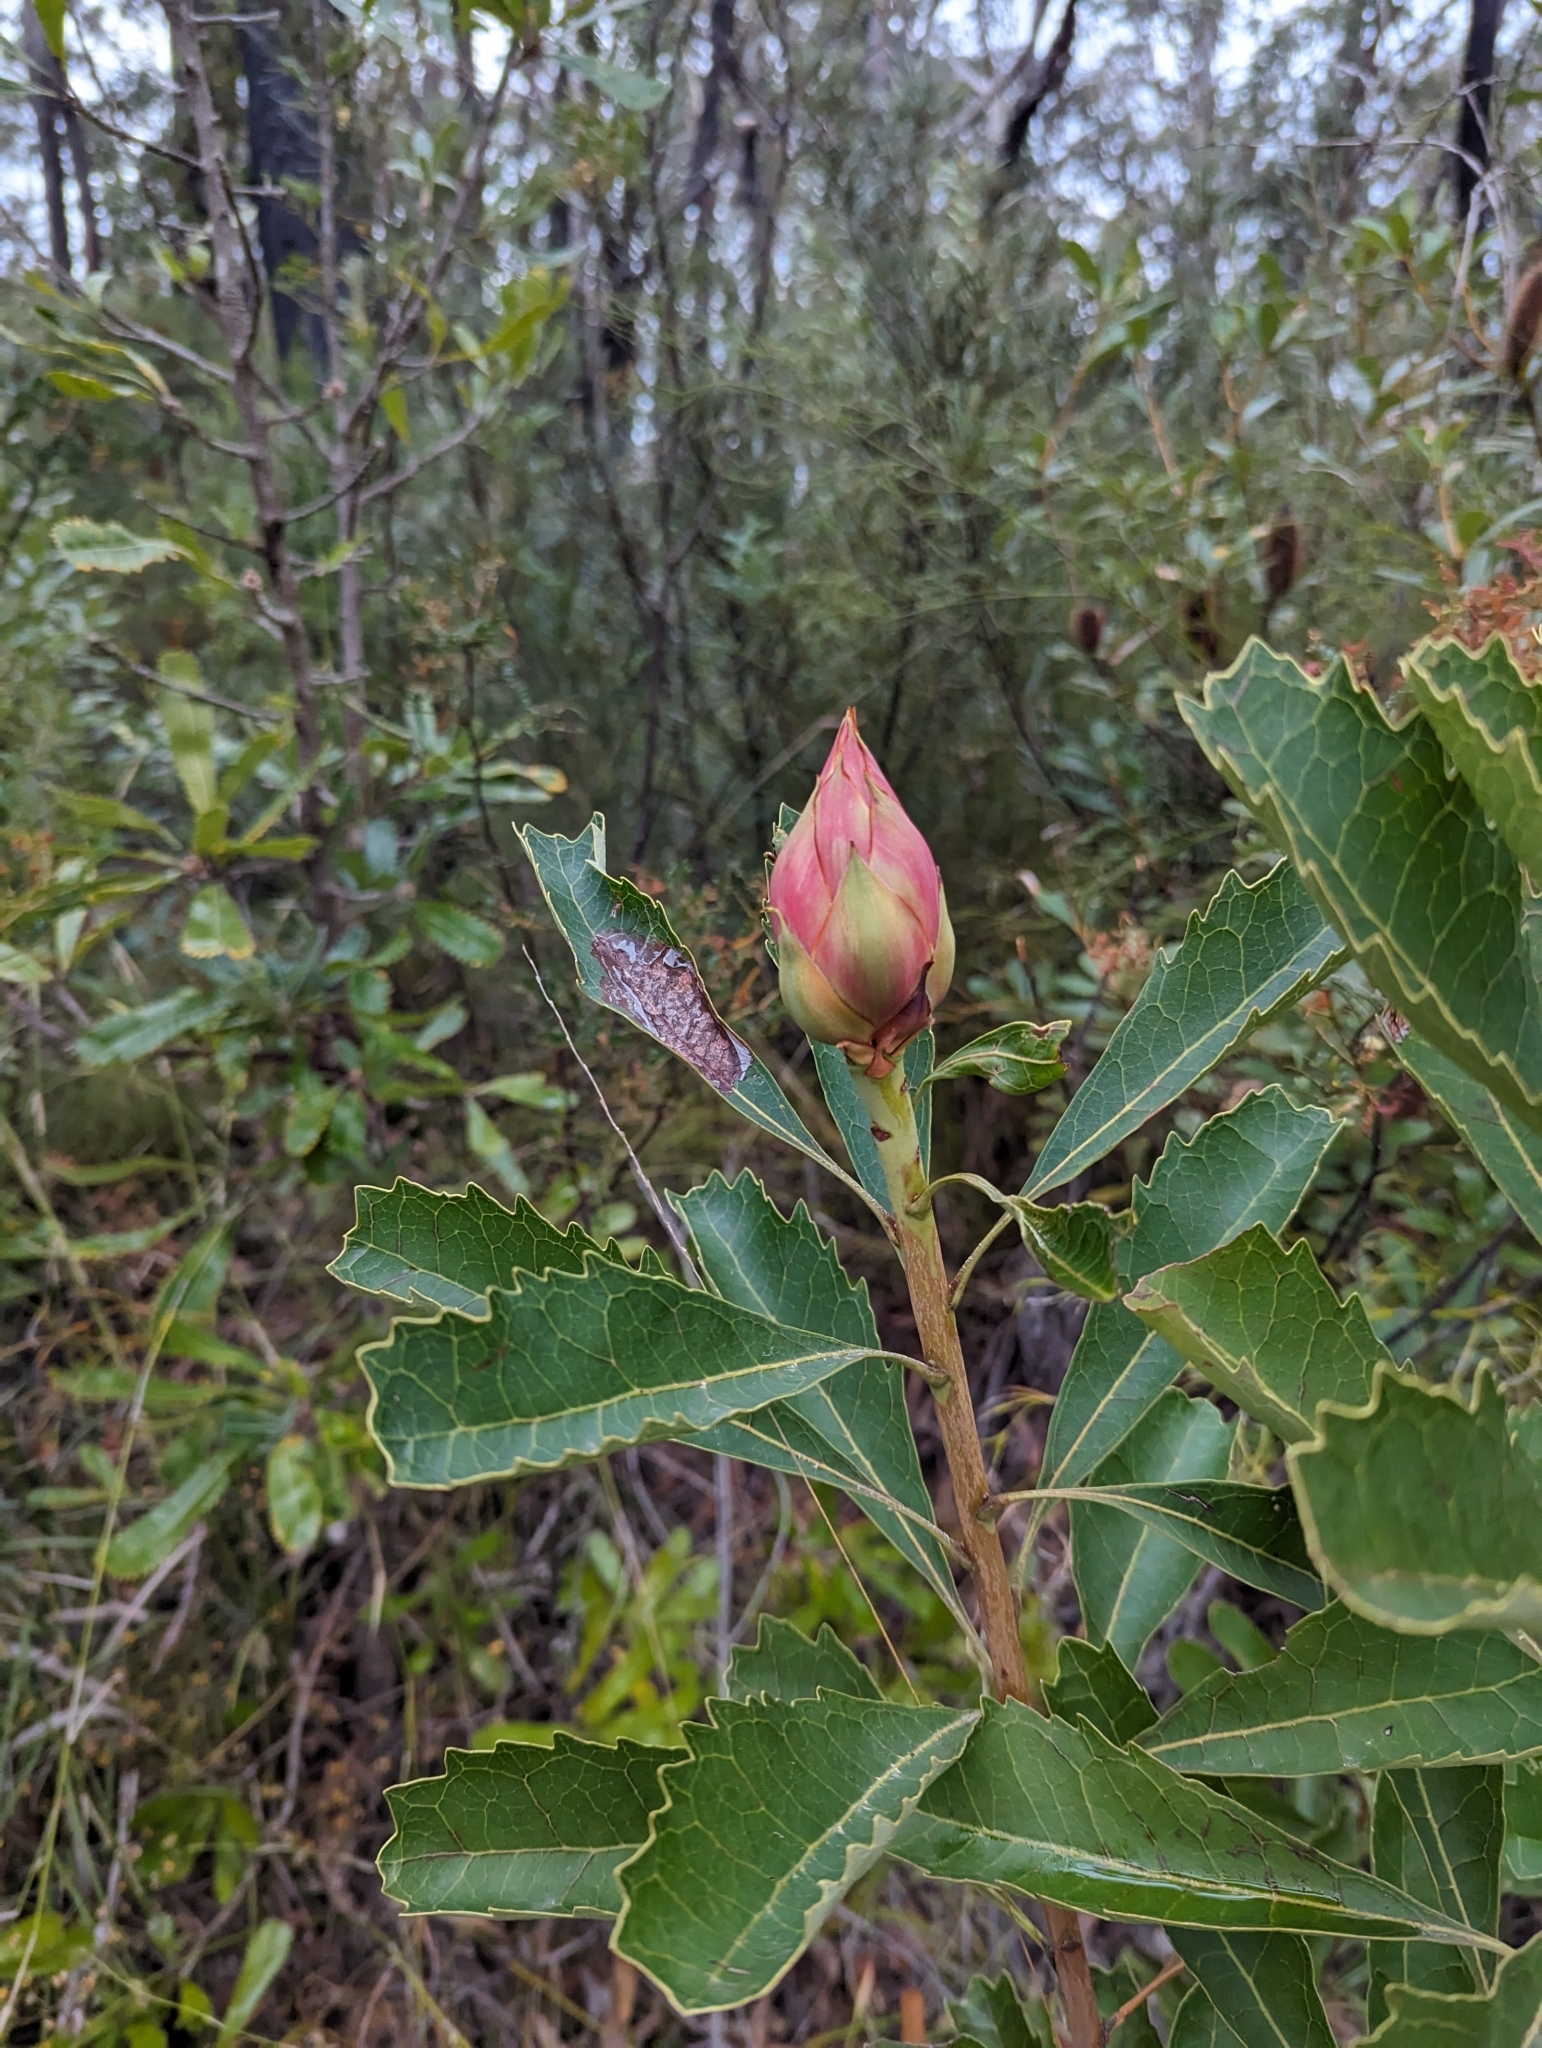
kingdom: Plantae
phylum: Tracheophyta
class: Magnoliopsida
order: Proteales
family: Proteaceae
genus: Telopea
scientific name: Telopea speciosissima
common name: New south wales waratah
